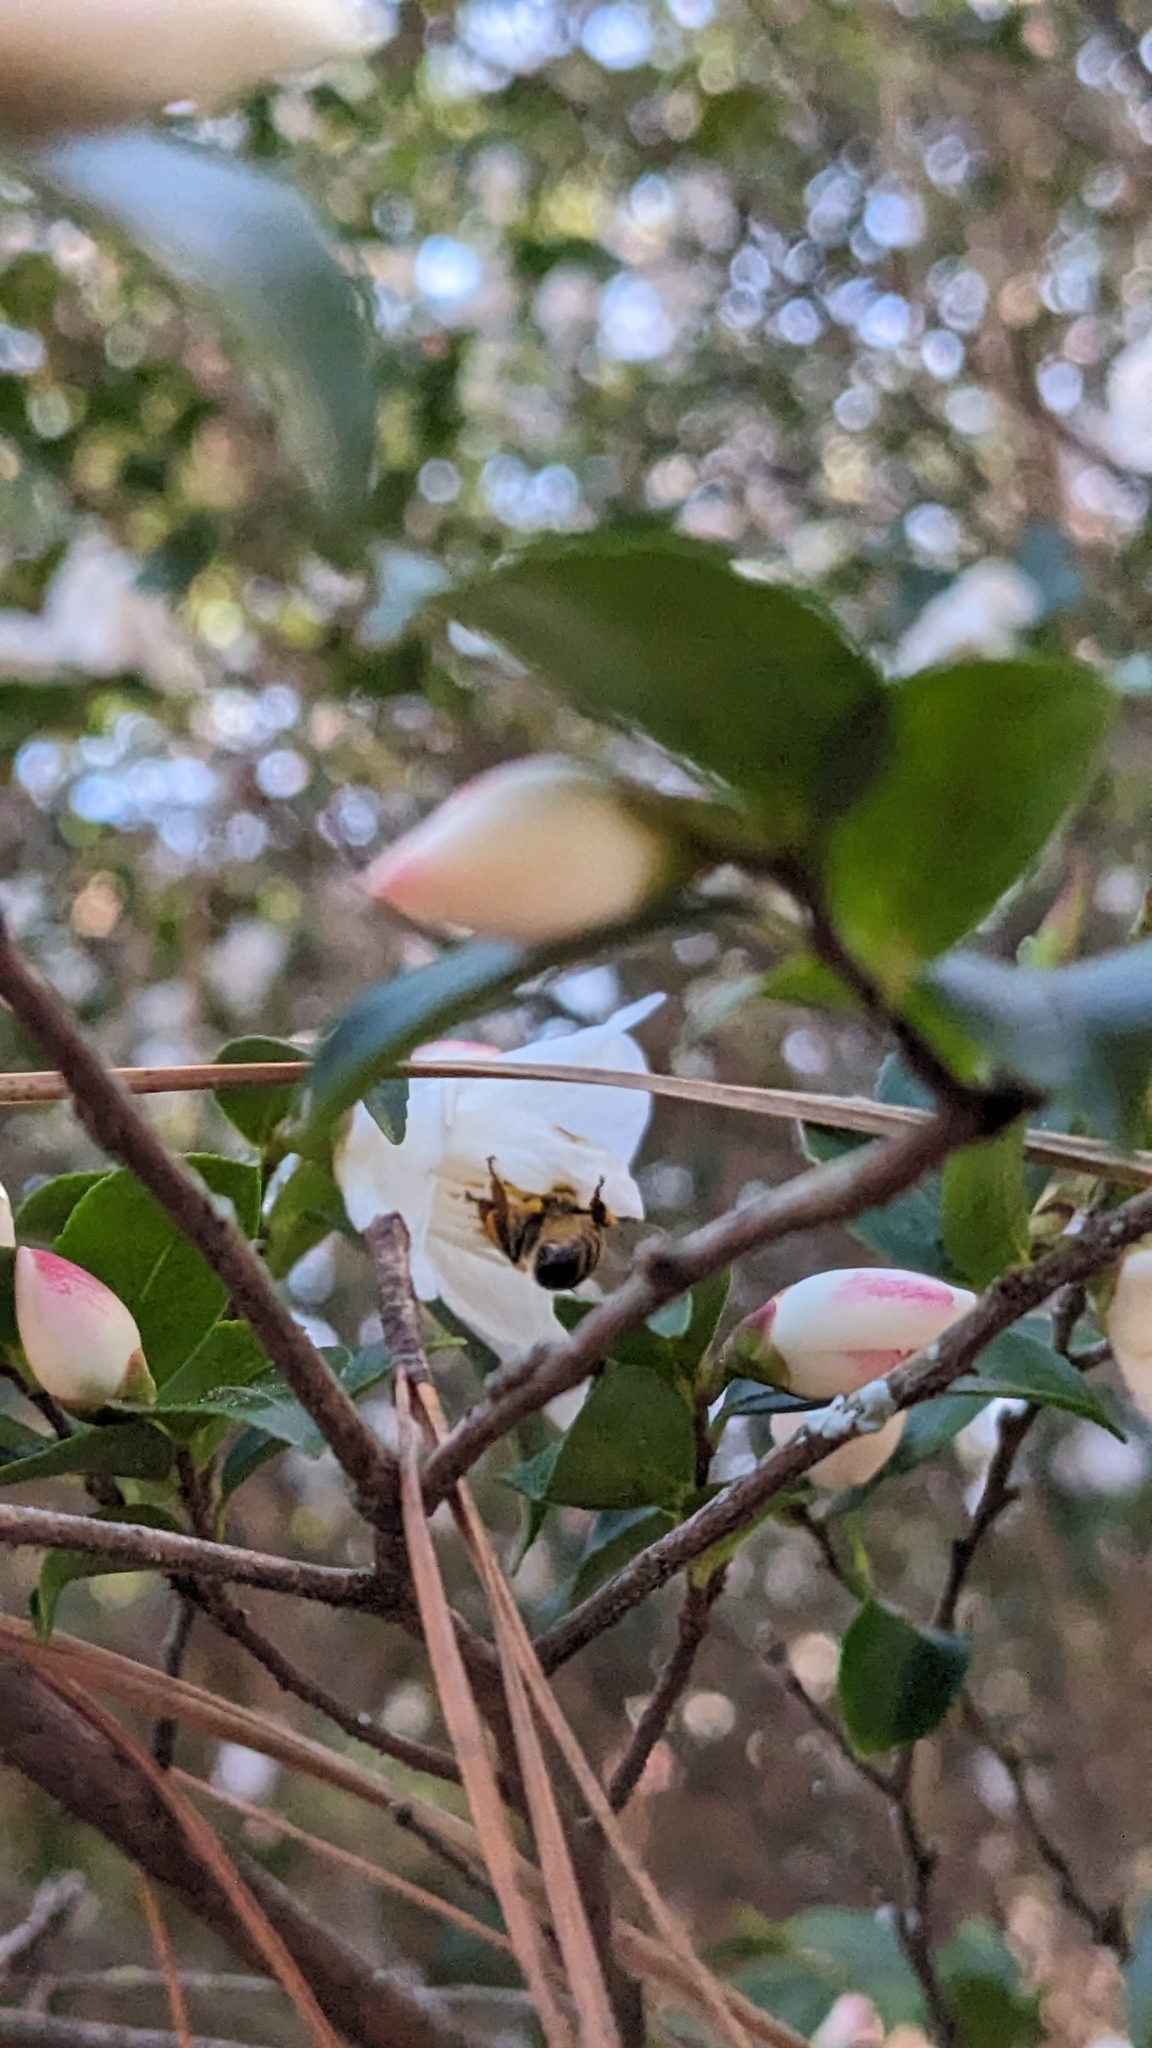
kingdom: Animalia
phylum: Arthropoda
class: Insecta
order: Hymenoptera
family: Apidae
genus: Apis
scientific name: Apis mellifera
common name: Honey bee
